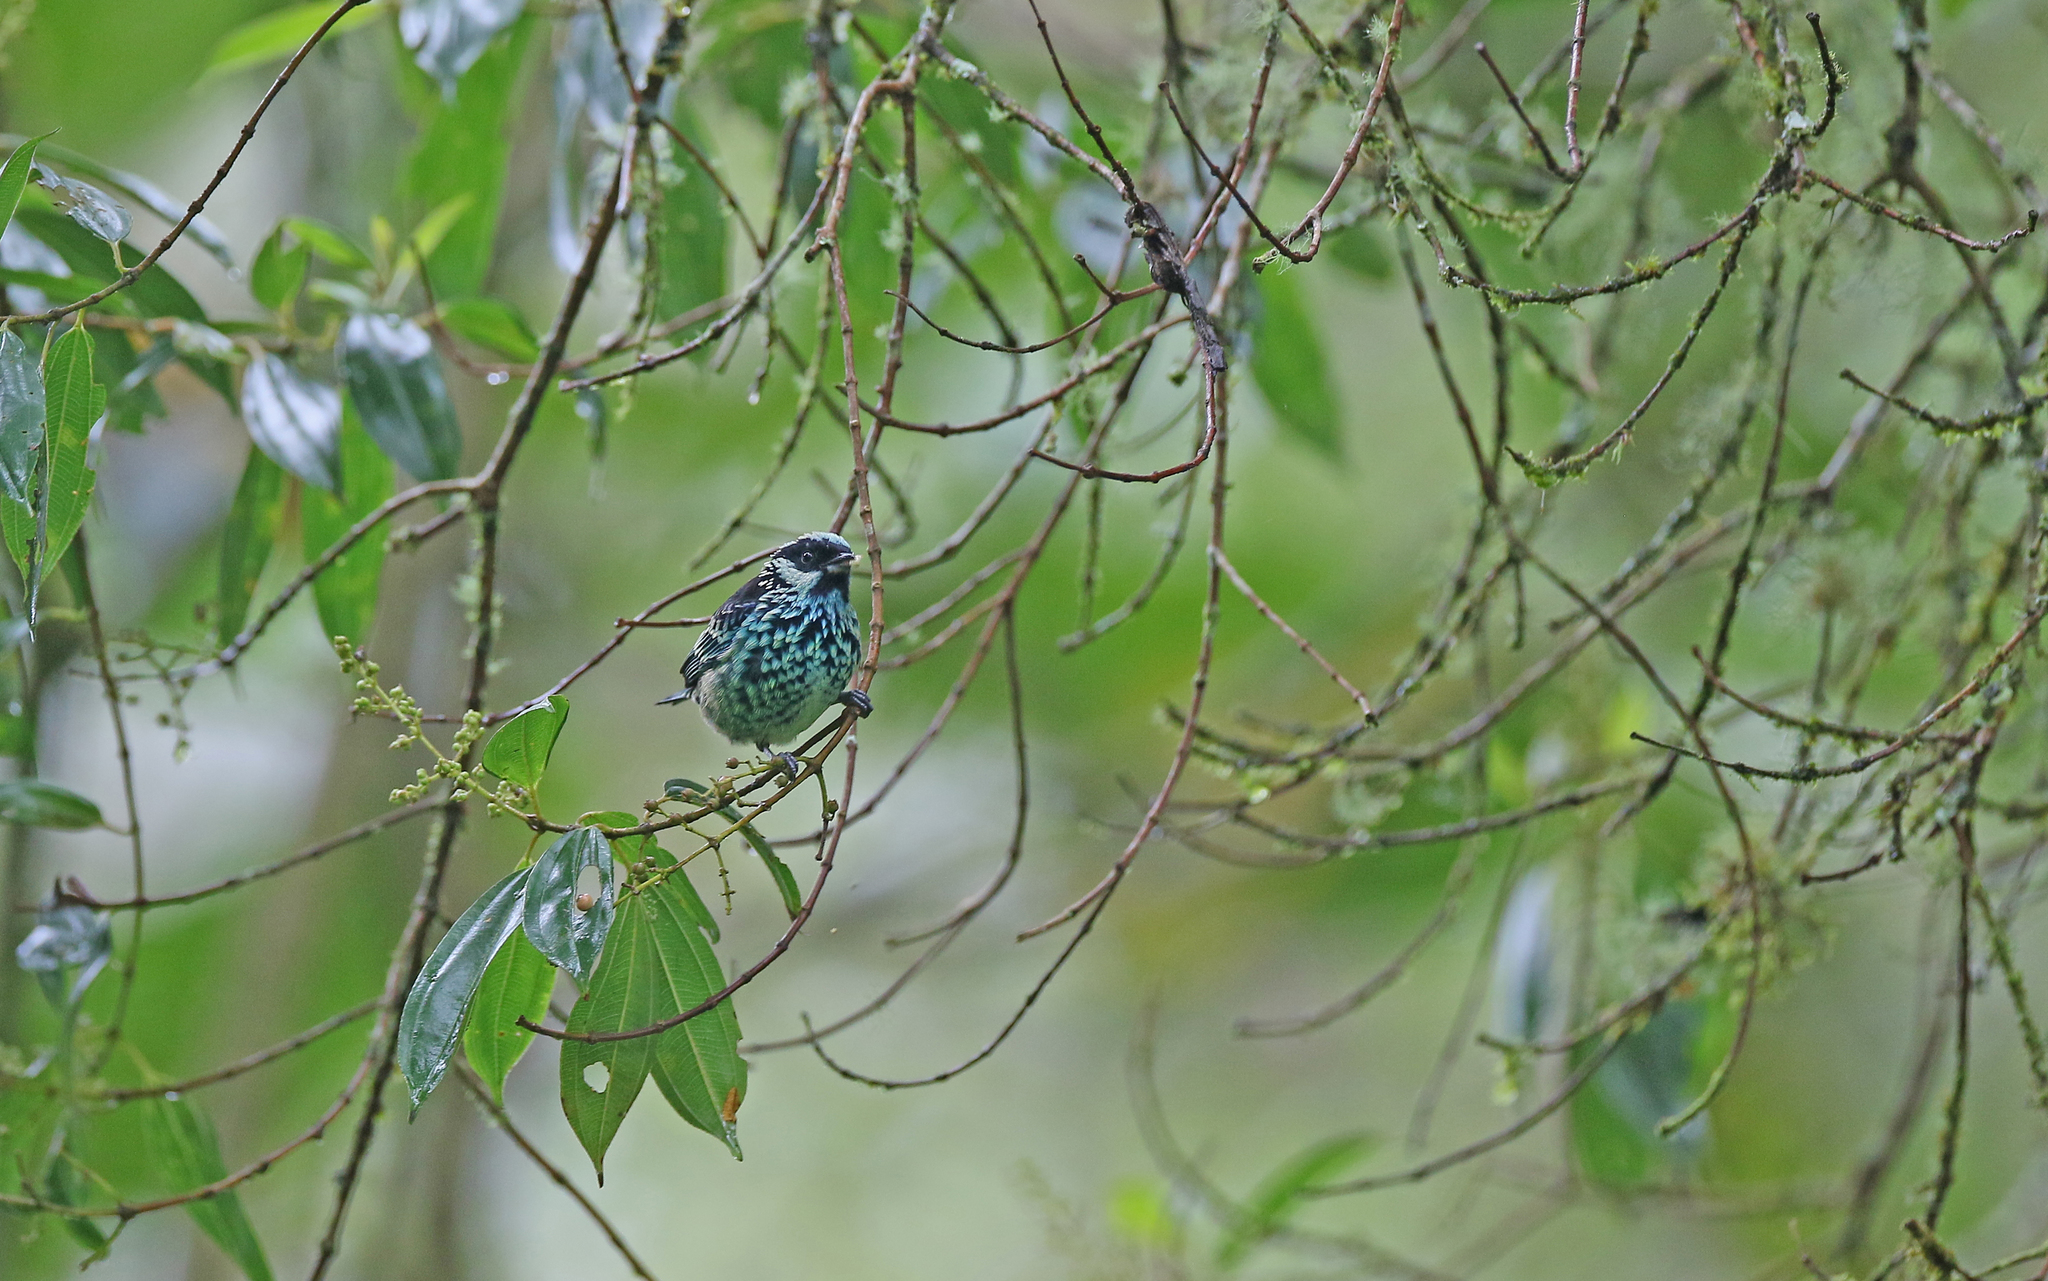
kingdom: Animalia
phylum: Chordata
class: Aves
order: Passeriformes
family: Thraupidae
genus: Tangara
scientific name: Tangara nigroviridis
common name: Beryl-spangled tanager
